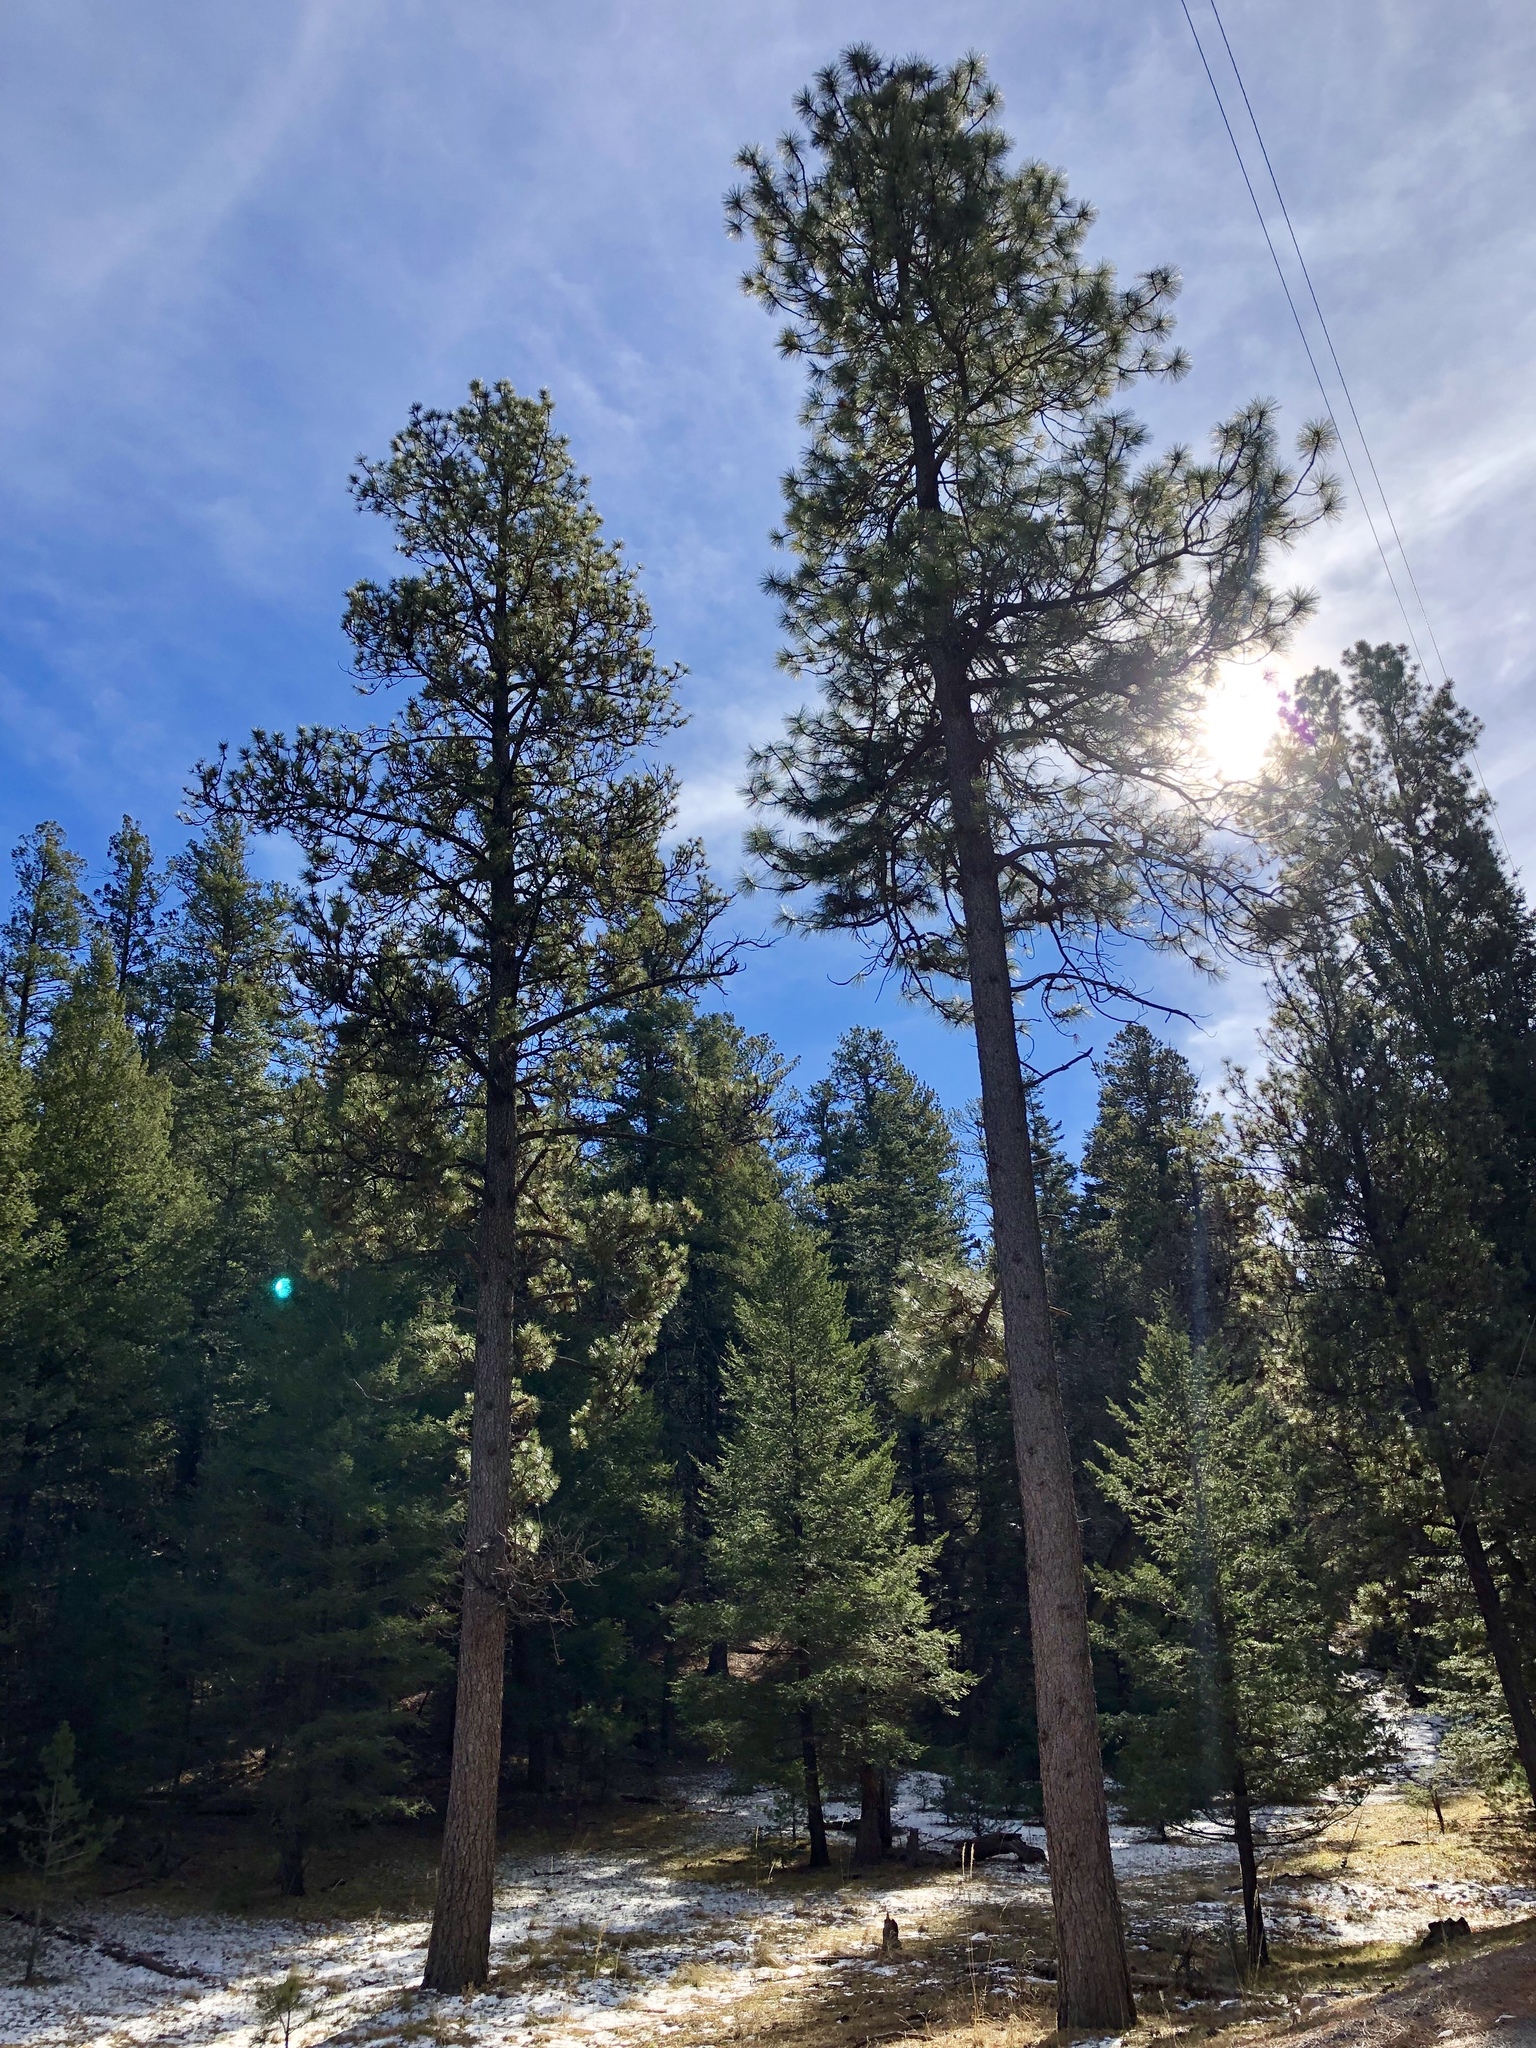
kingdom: Plantae
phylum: Tracheophyta
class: Pinopsida
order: Pinales
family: Pinaceae
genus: Pinus
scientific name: Pinus ponderosa
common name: Western yellow-pine
